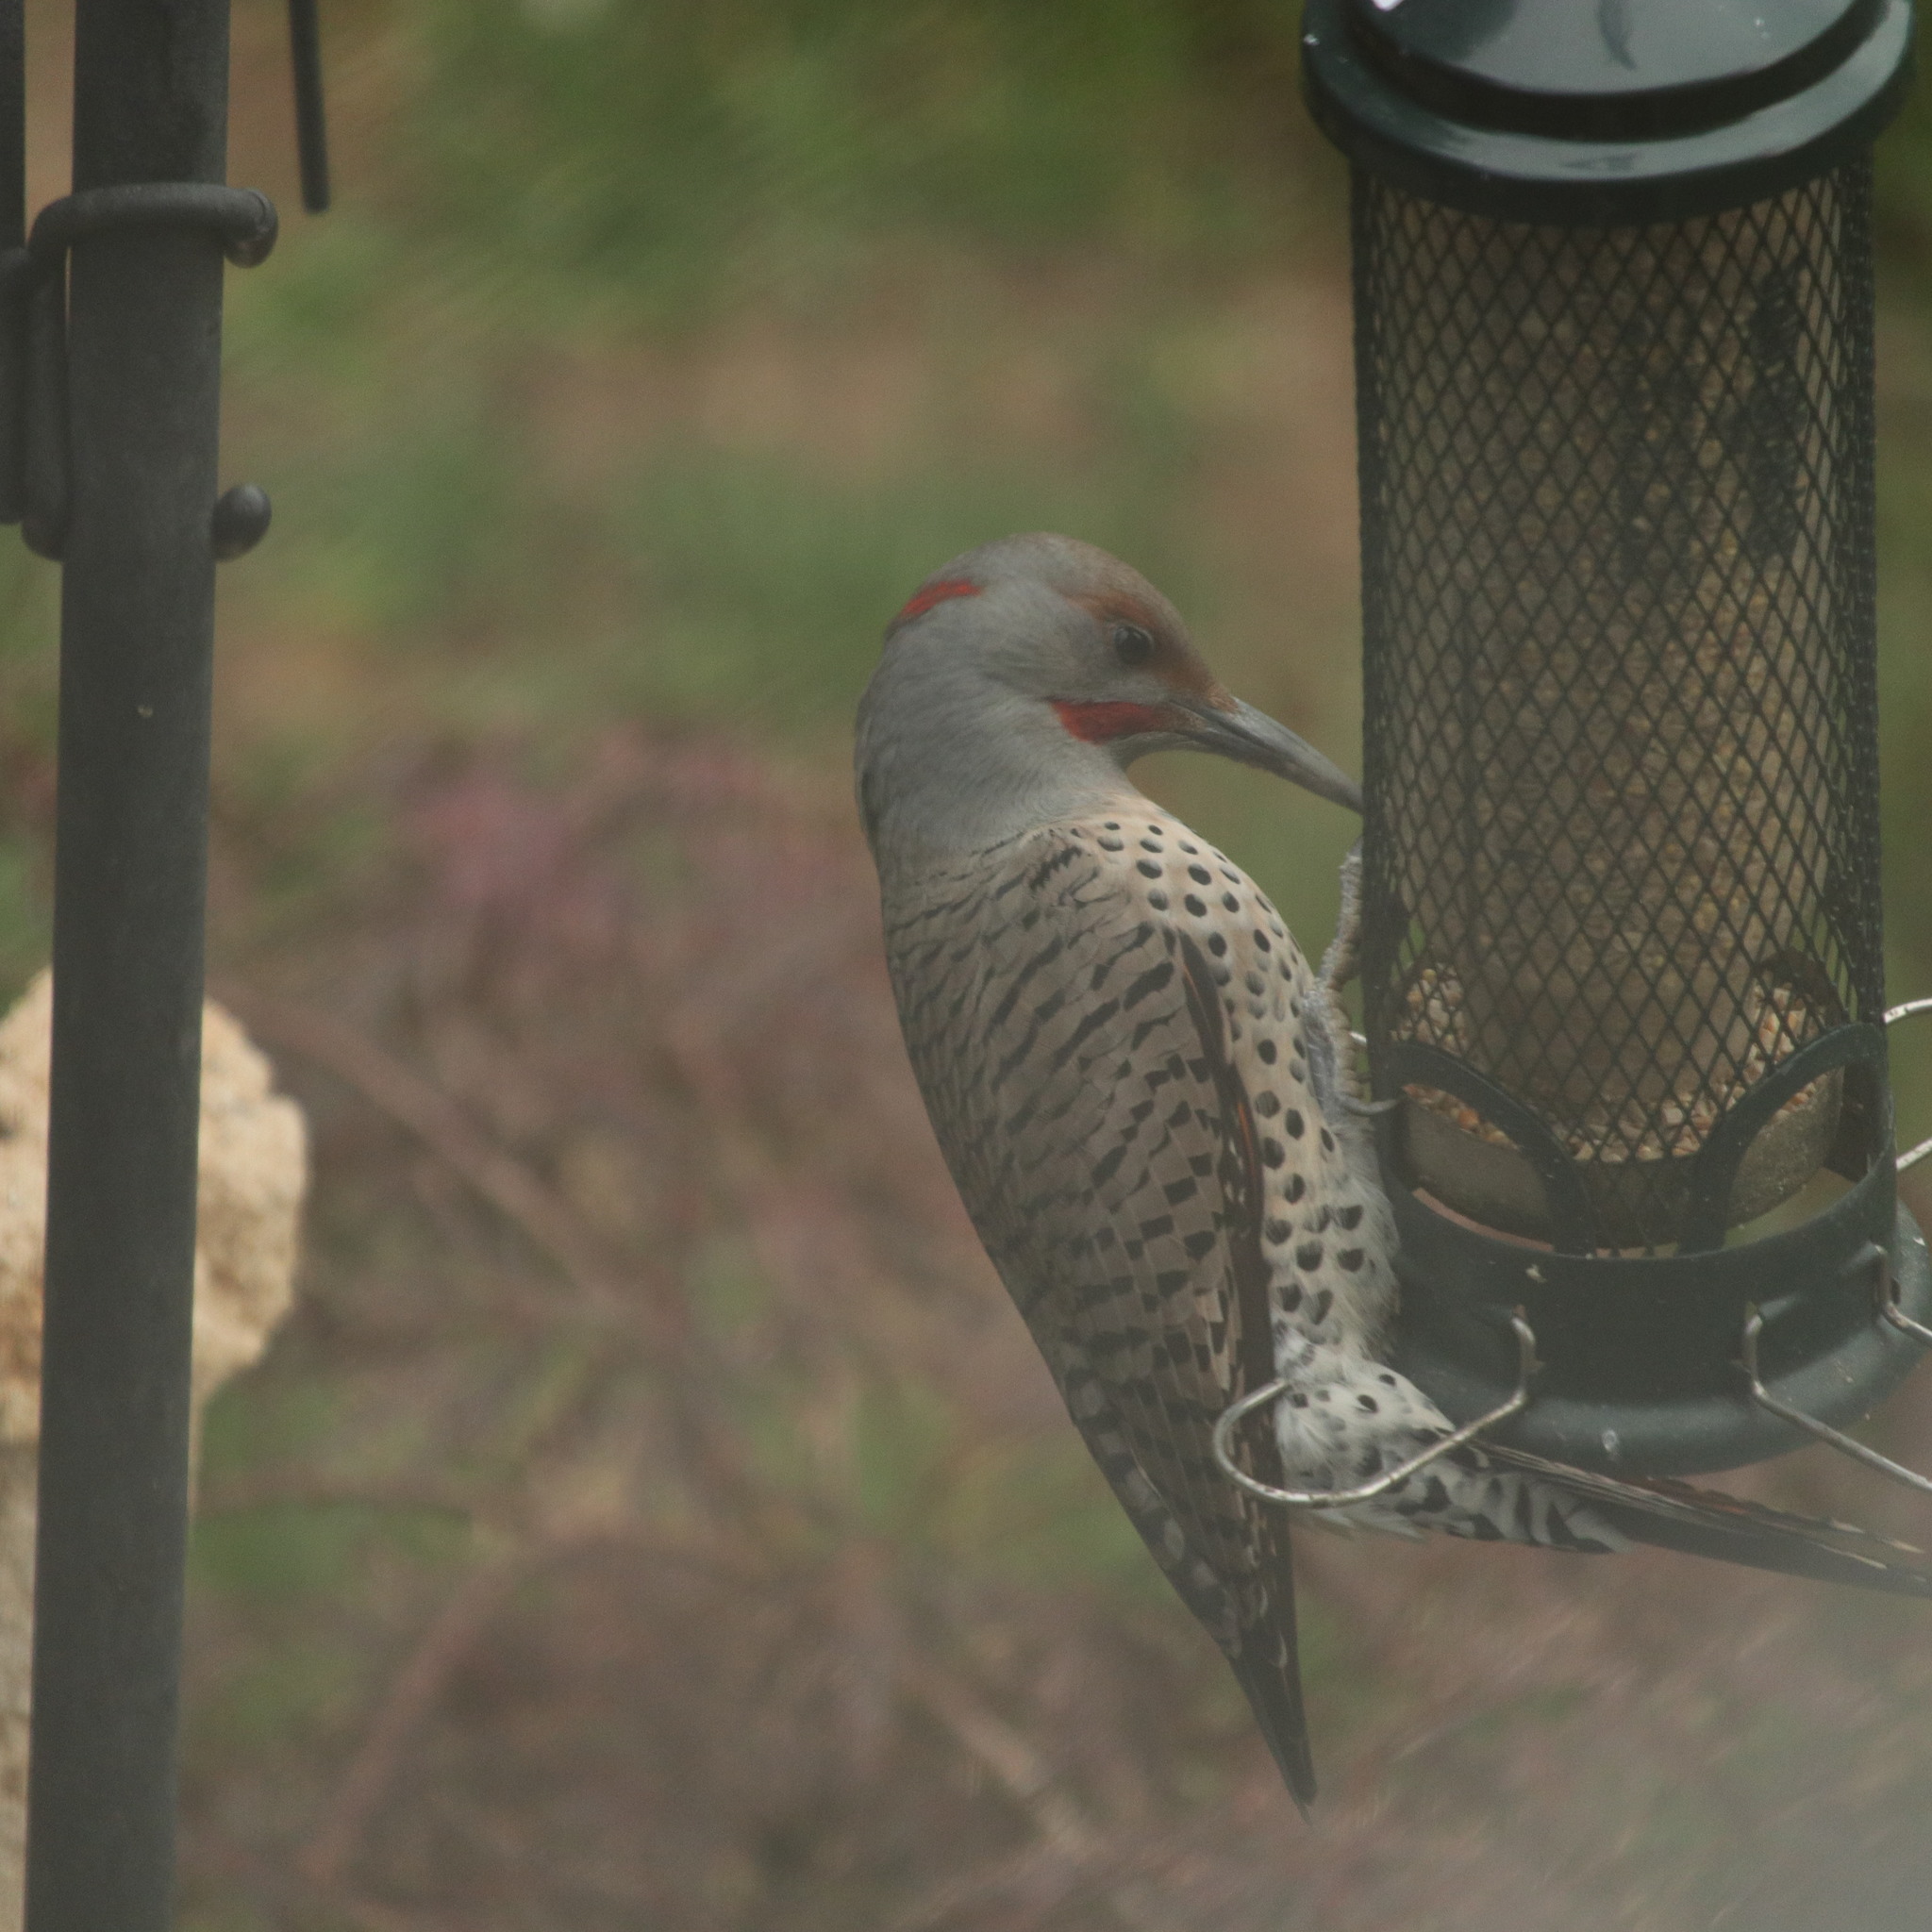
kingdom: Animalia
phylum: Chordata
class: Aves
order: Piciformes
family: Picidae
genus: Colaptes
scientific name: Colaptes
